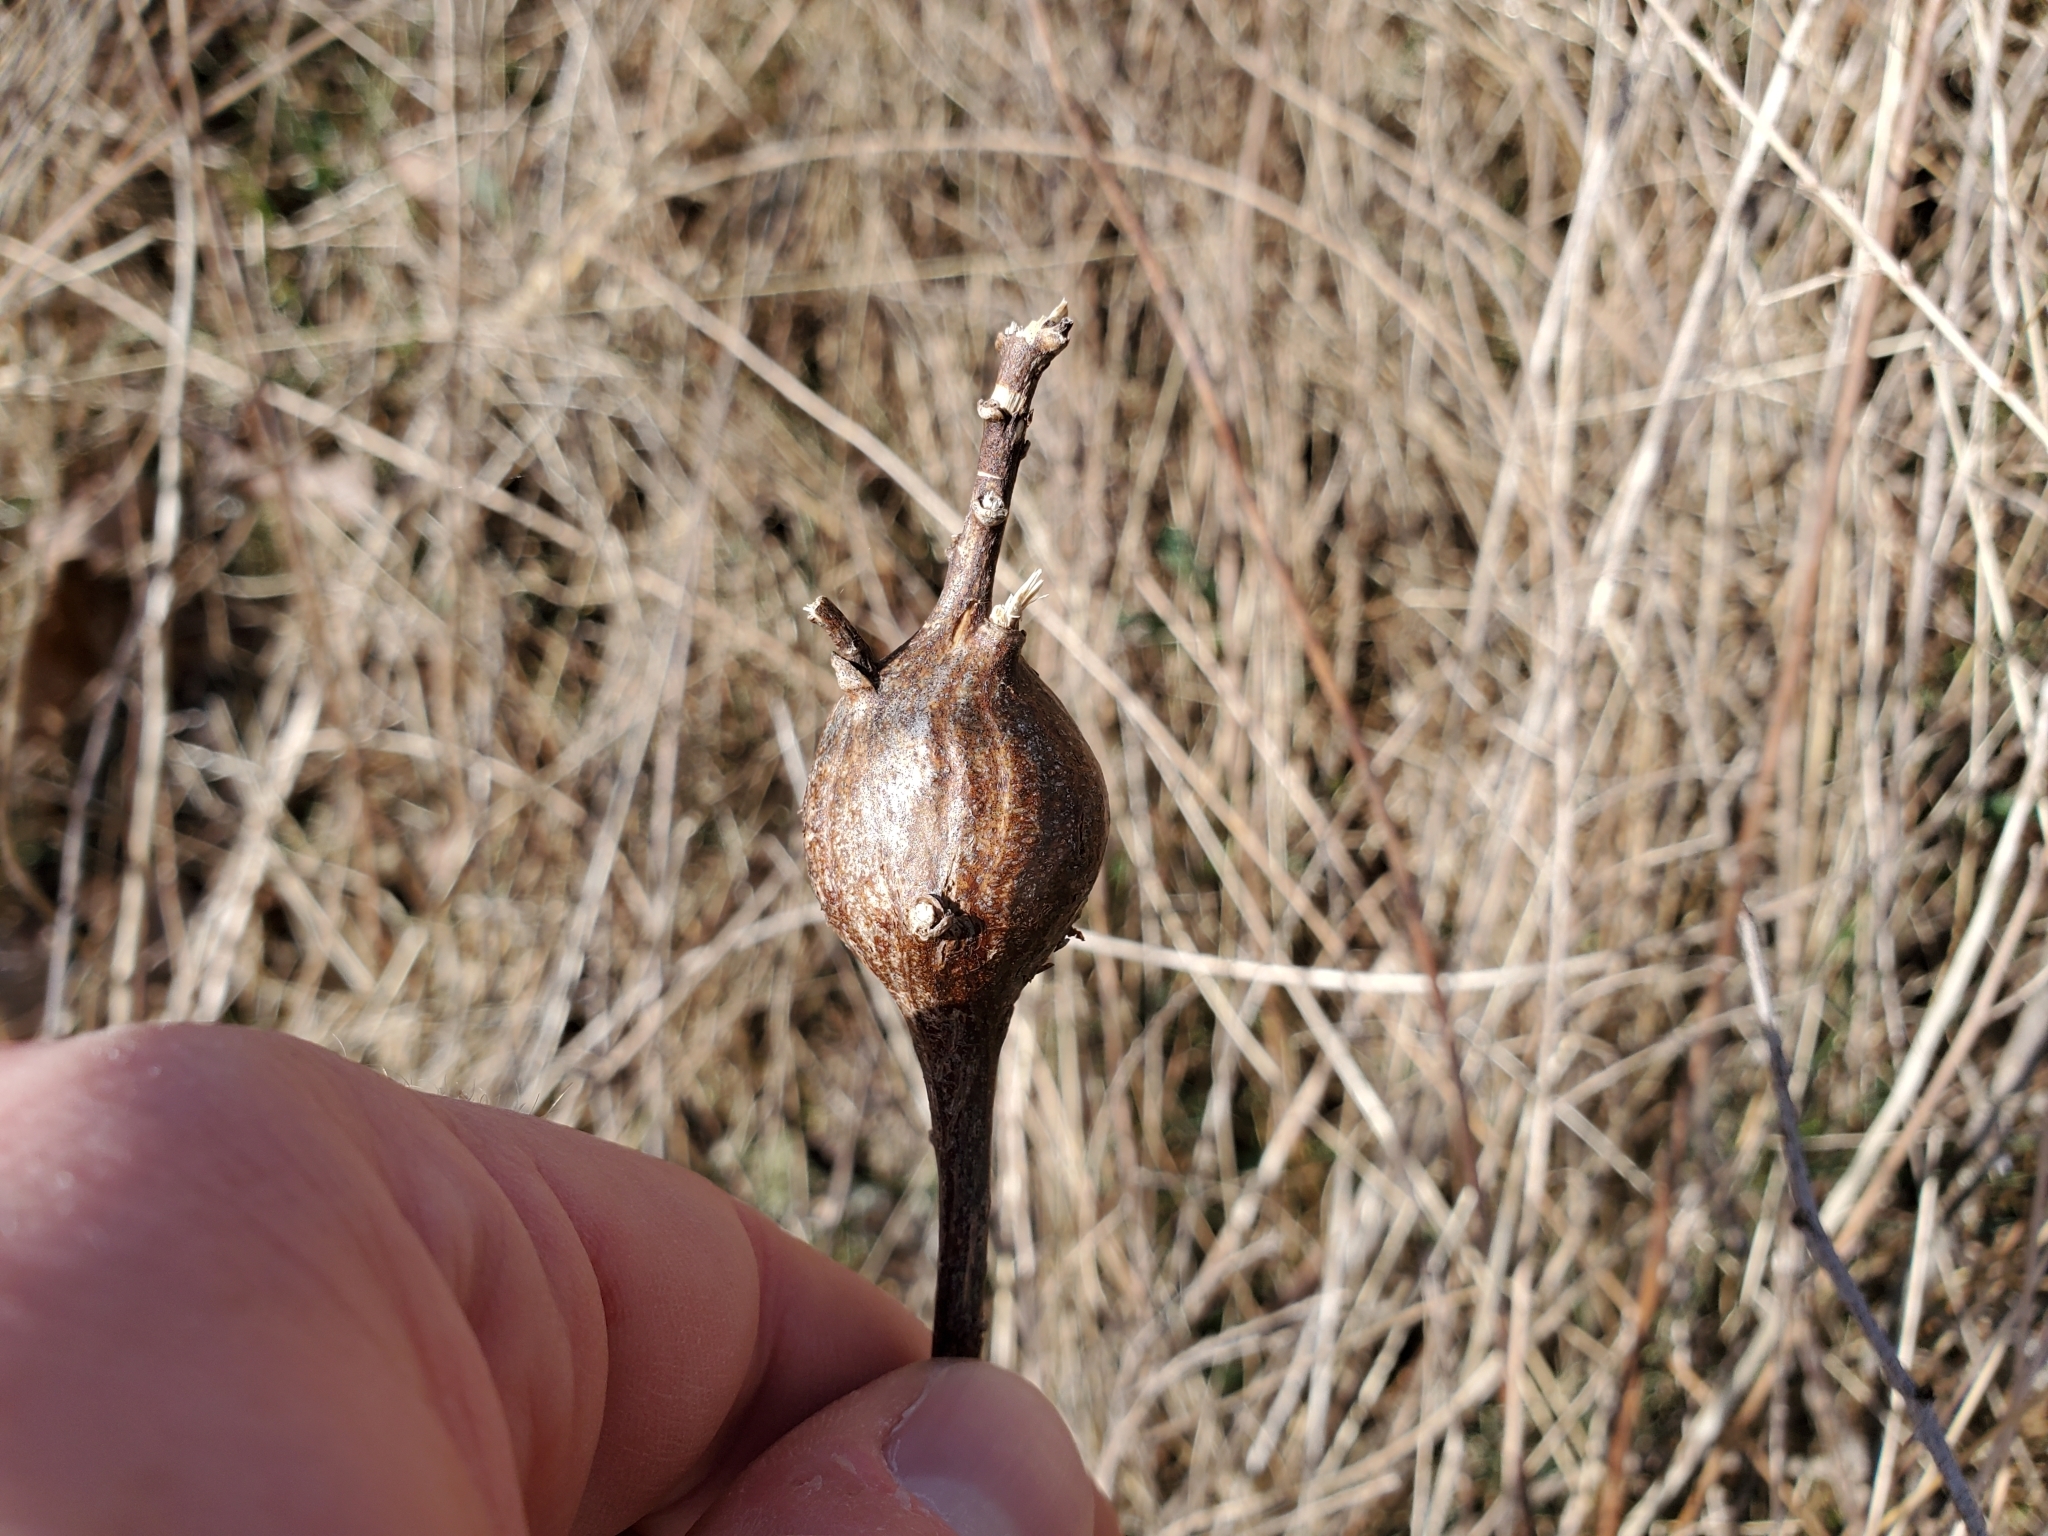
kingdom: Animalia
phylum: Arthropoda
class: Insecta
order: Diptera
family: Tephritidae
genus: Eurosta
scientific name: Eurosta solidaginis
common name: Goldenrod gall fly
